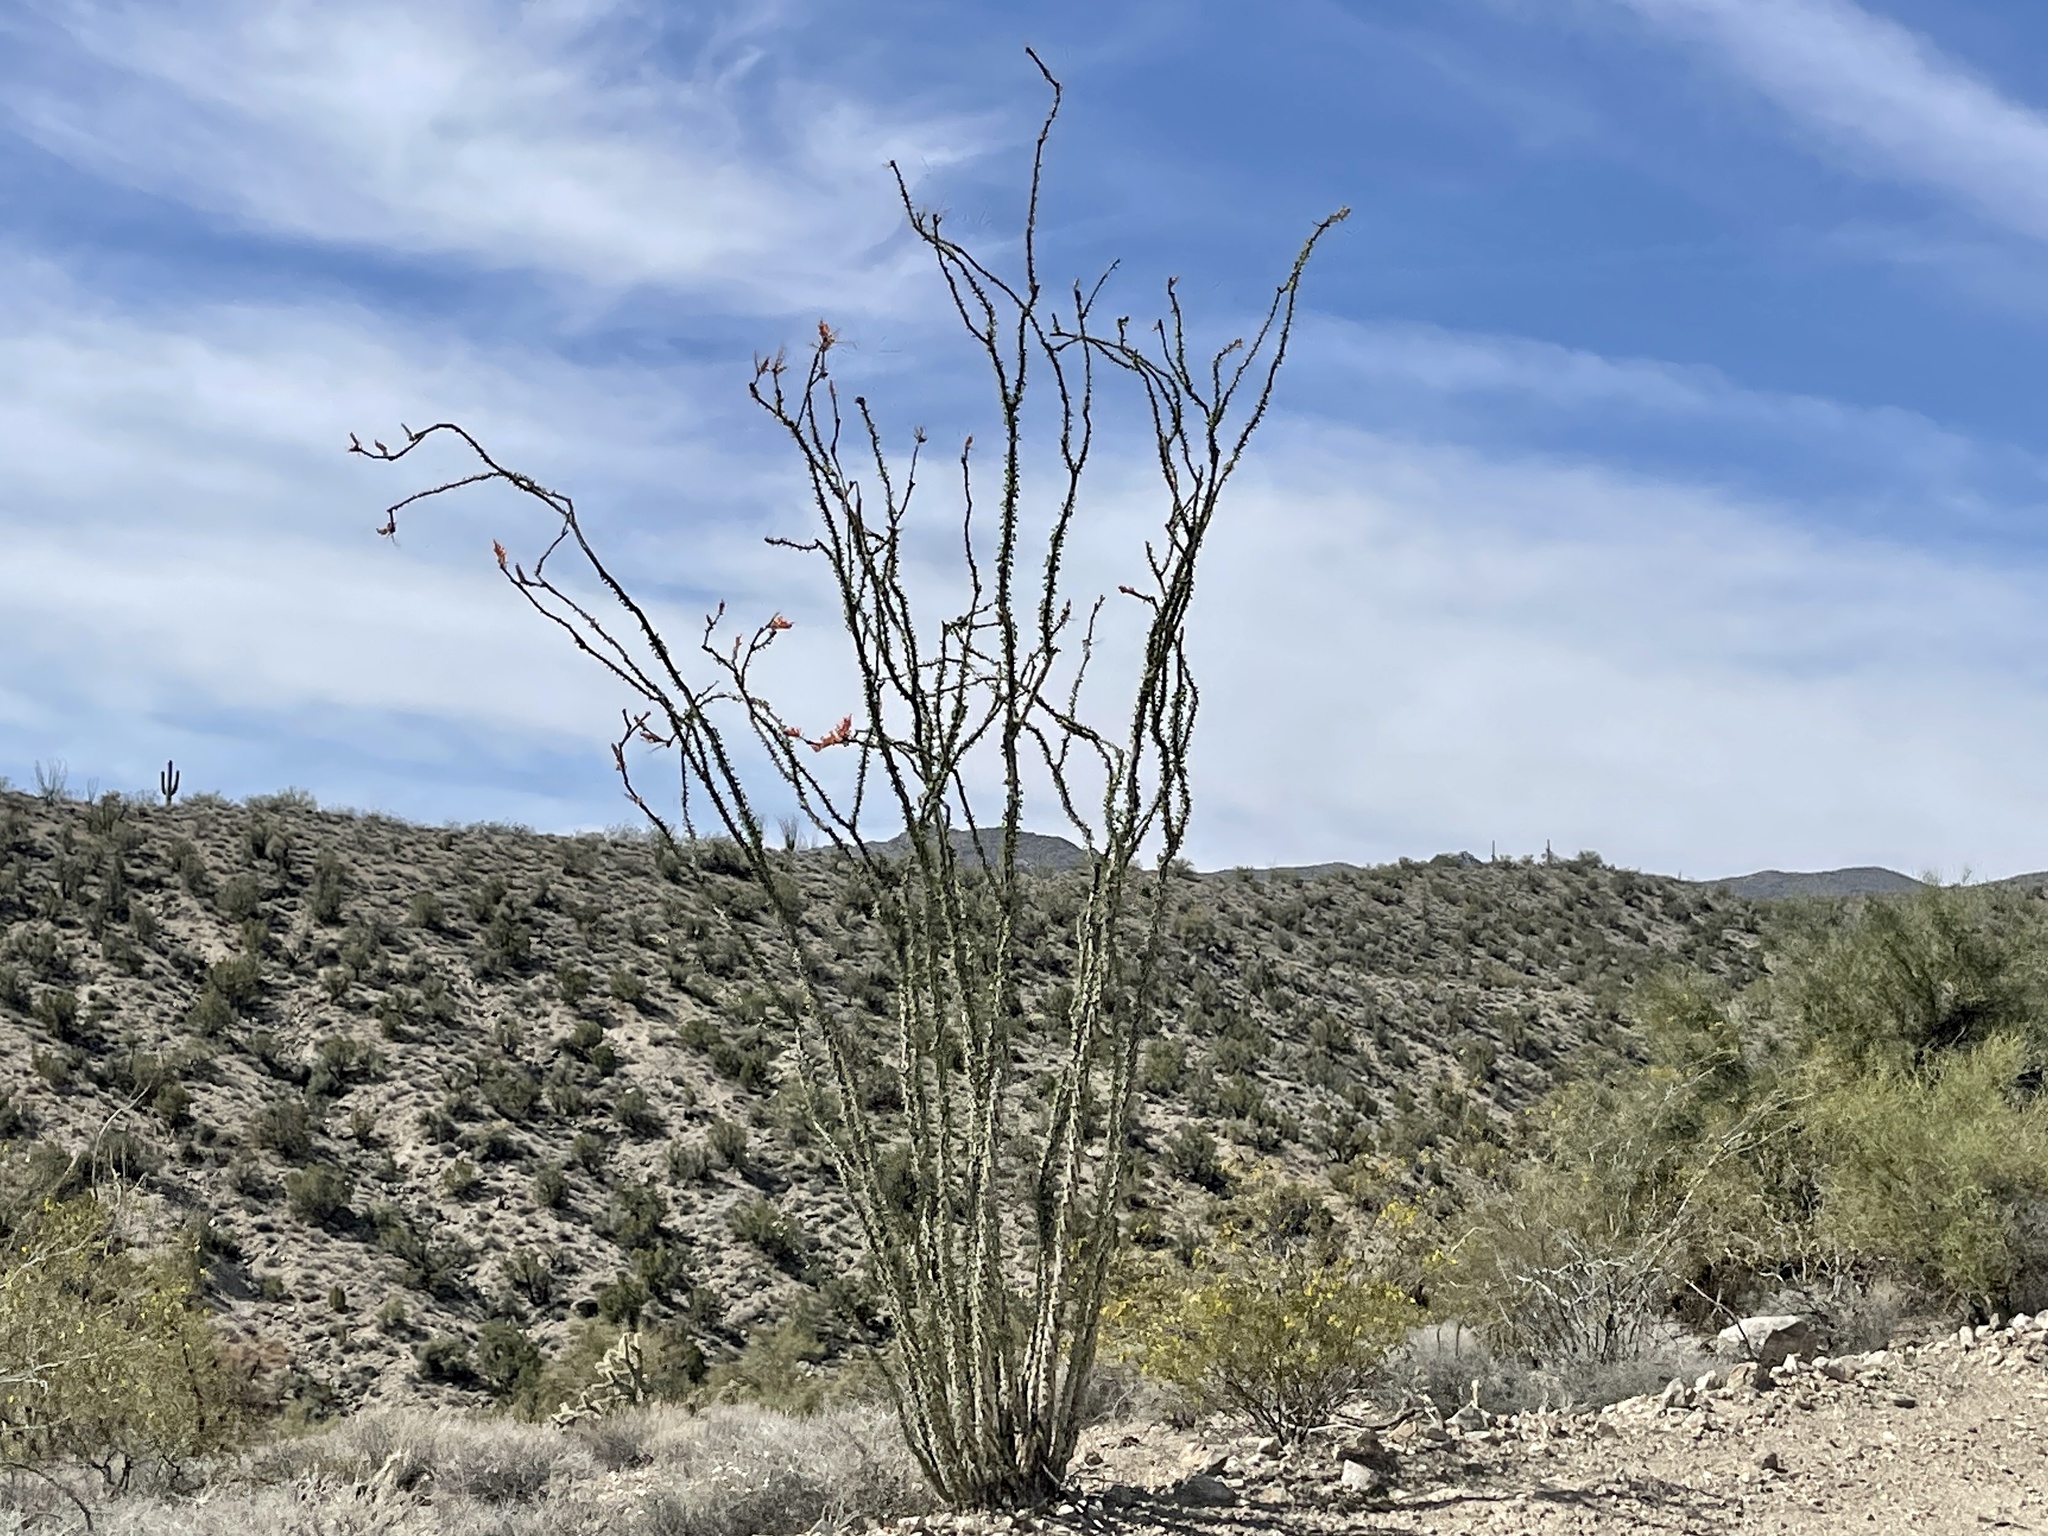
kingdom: Plantae
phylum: Tracheophyta
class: Magnoliopsida
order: Ericales
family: Fouquieriaceae
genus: Fouquieria
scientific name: Fouquieria splendens
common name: Vine-cactus
